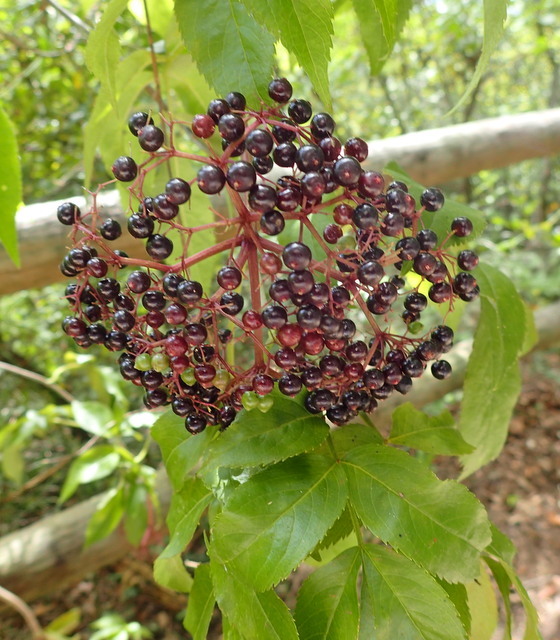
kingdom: Plantae
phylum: Tracheophyta
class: Magnoliopsida
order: Dipsacales
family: Viburnaceae
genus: Sambucus
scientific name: Sambucus canadensis
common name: American elder
